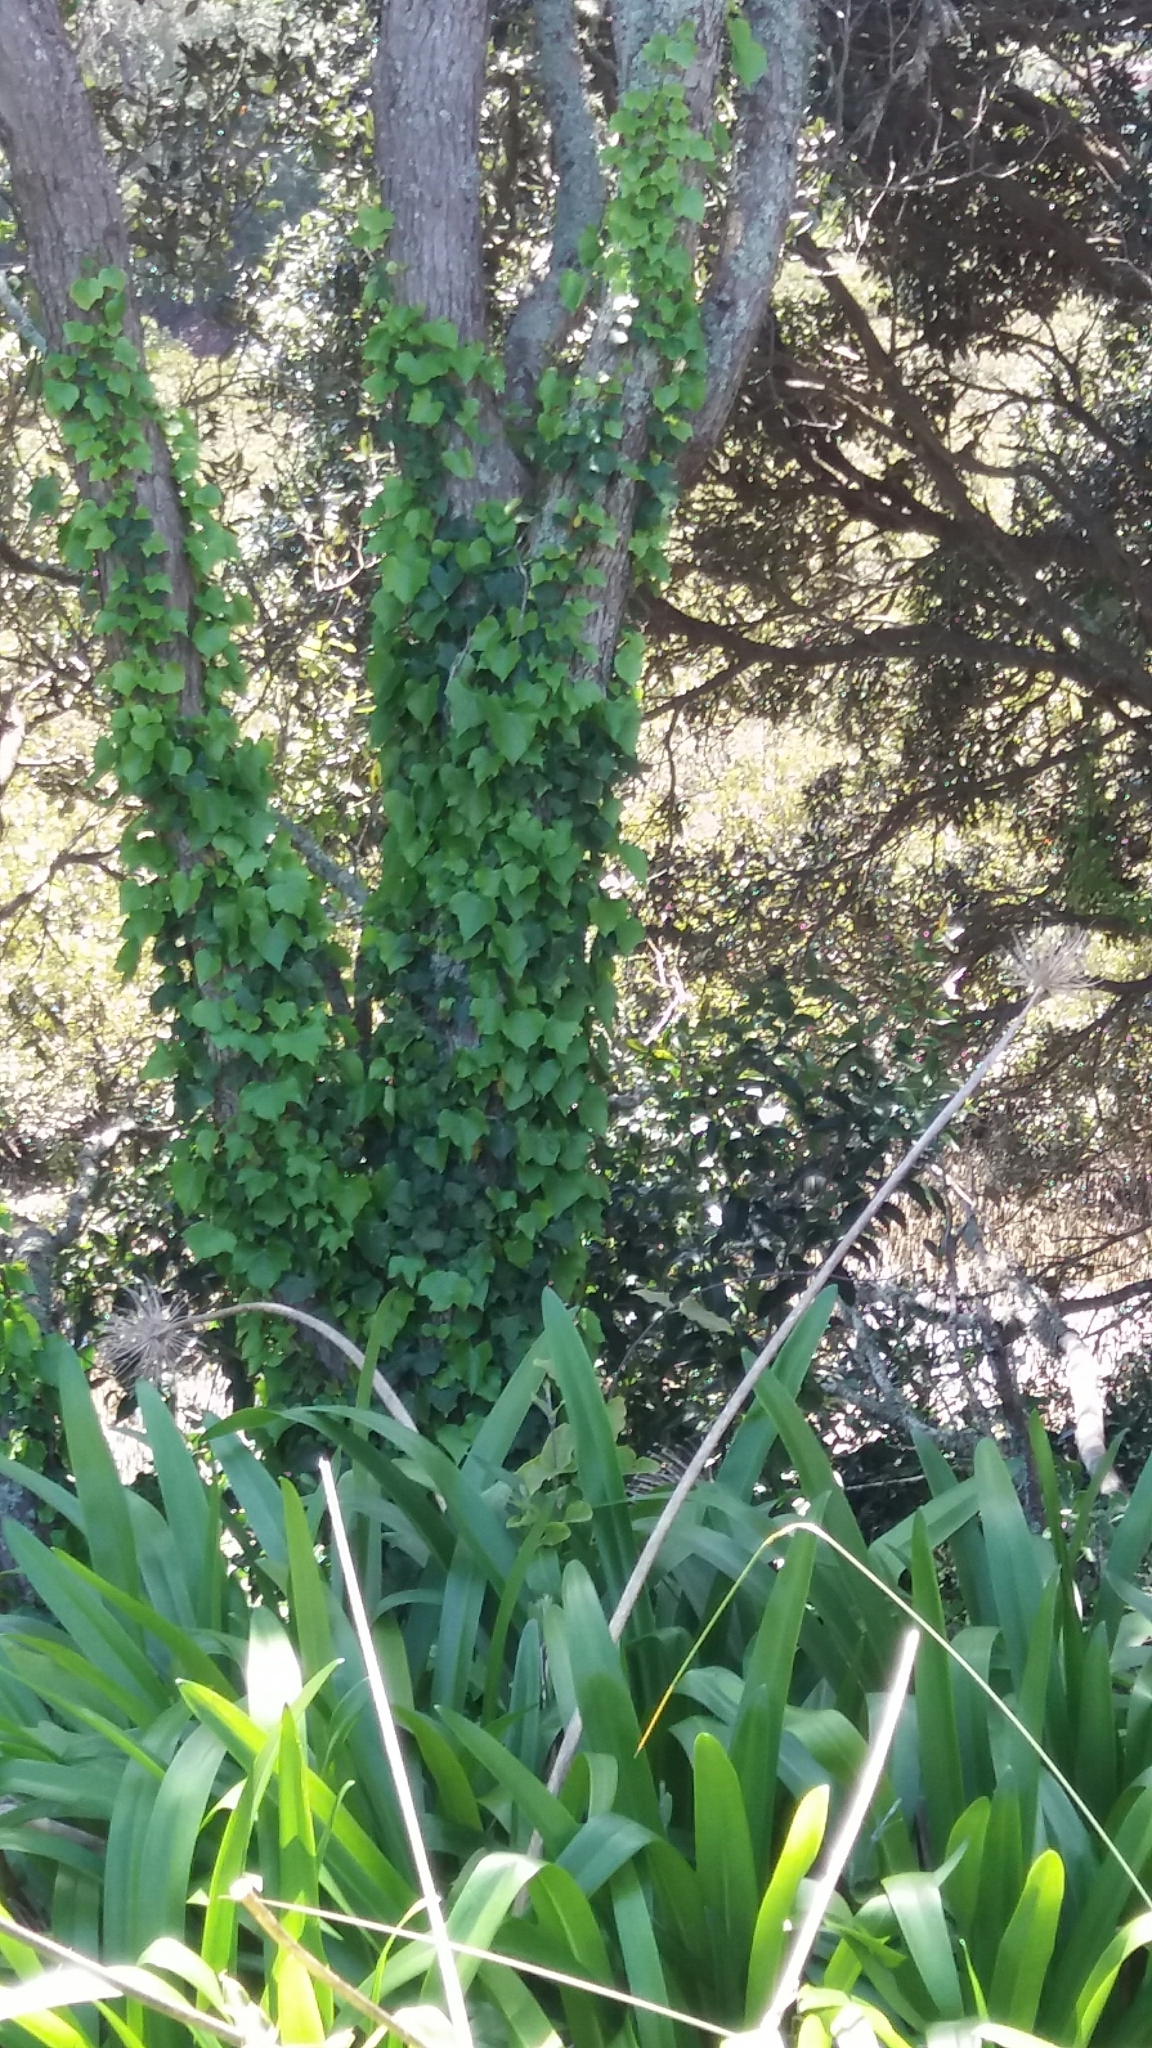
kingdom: Plantae
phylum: Tracheophyta
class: Magnoliopsida
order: Apiales
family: Araliaceae
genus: Hedera
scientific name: Hedera helix
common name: Ivy
